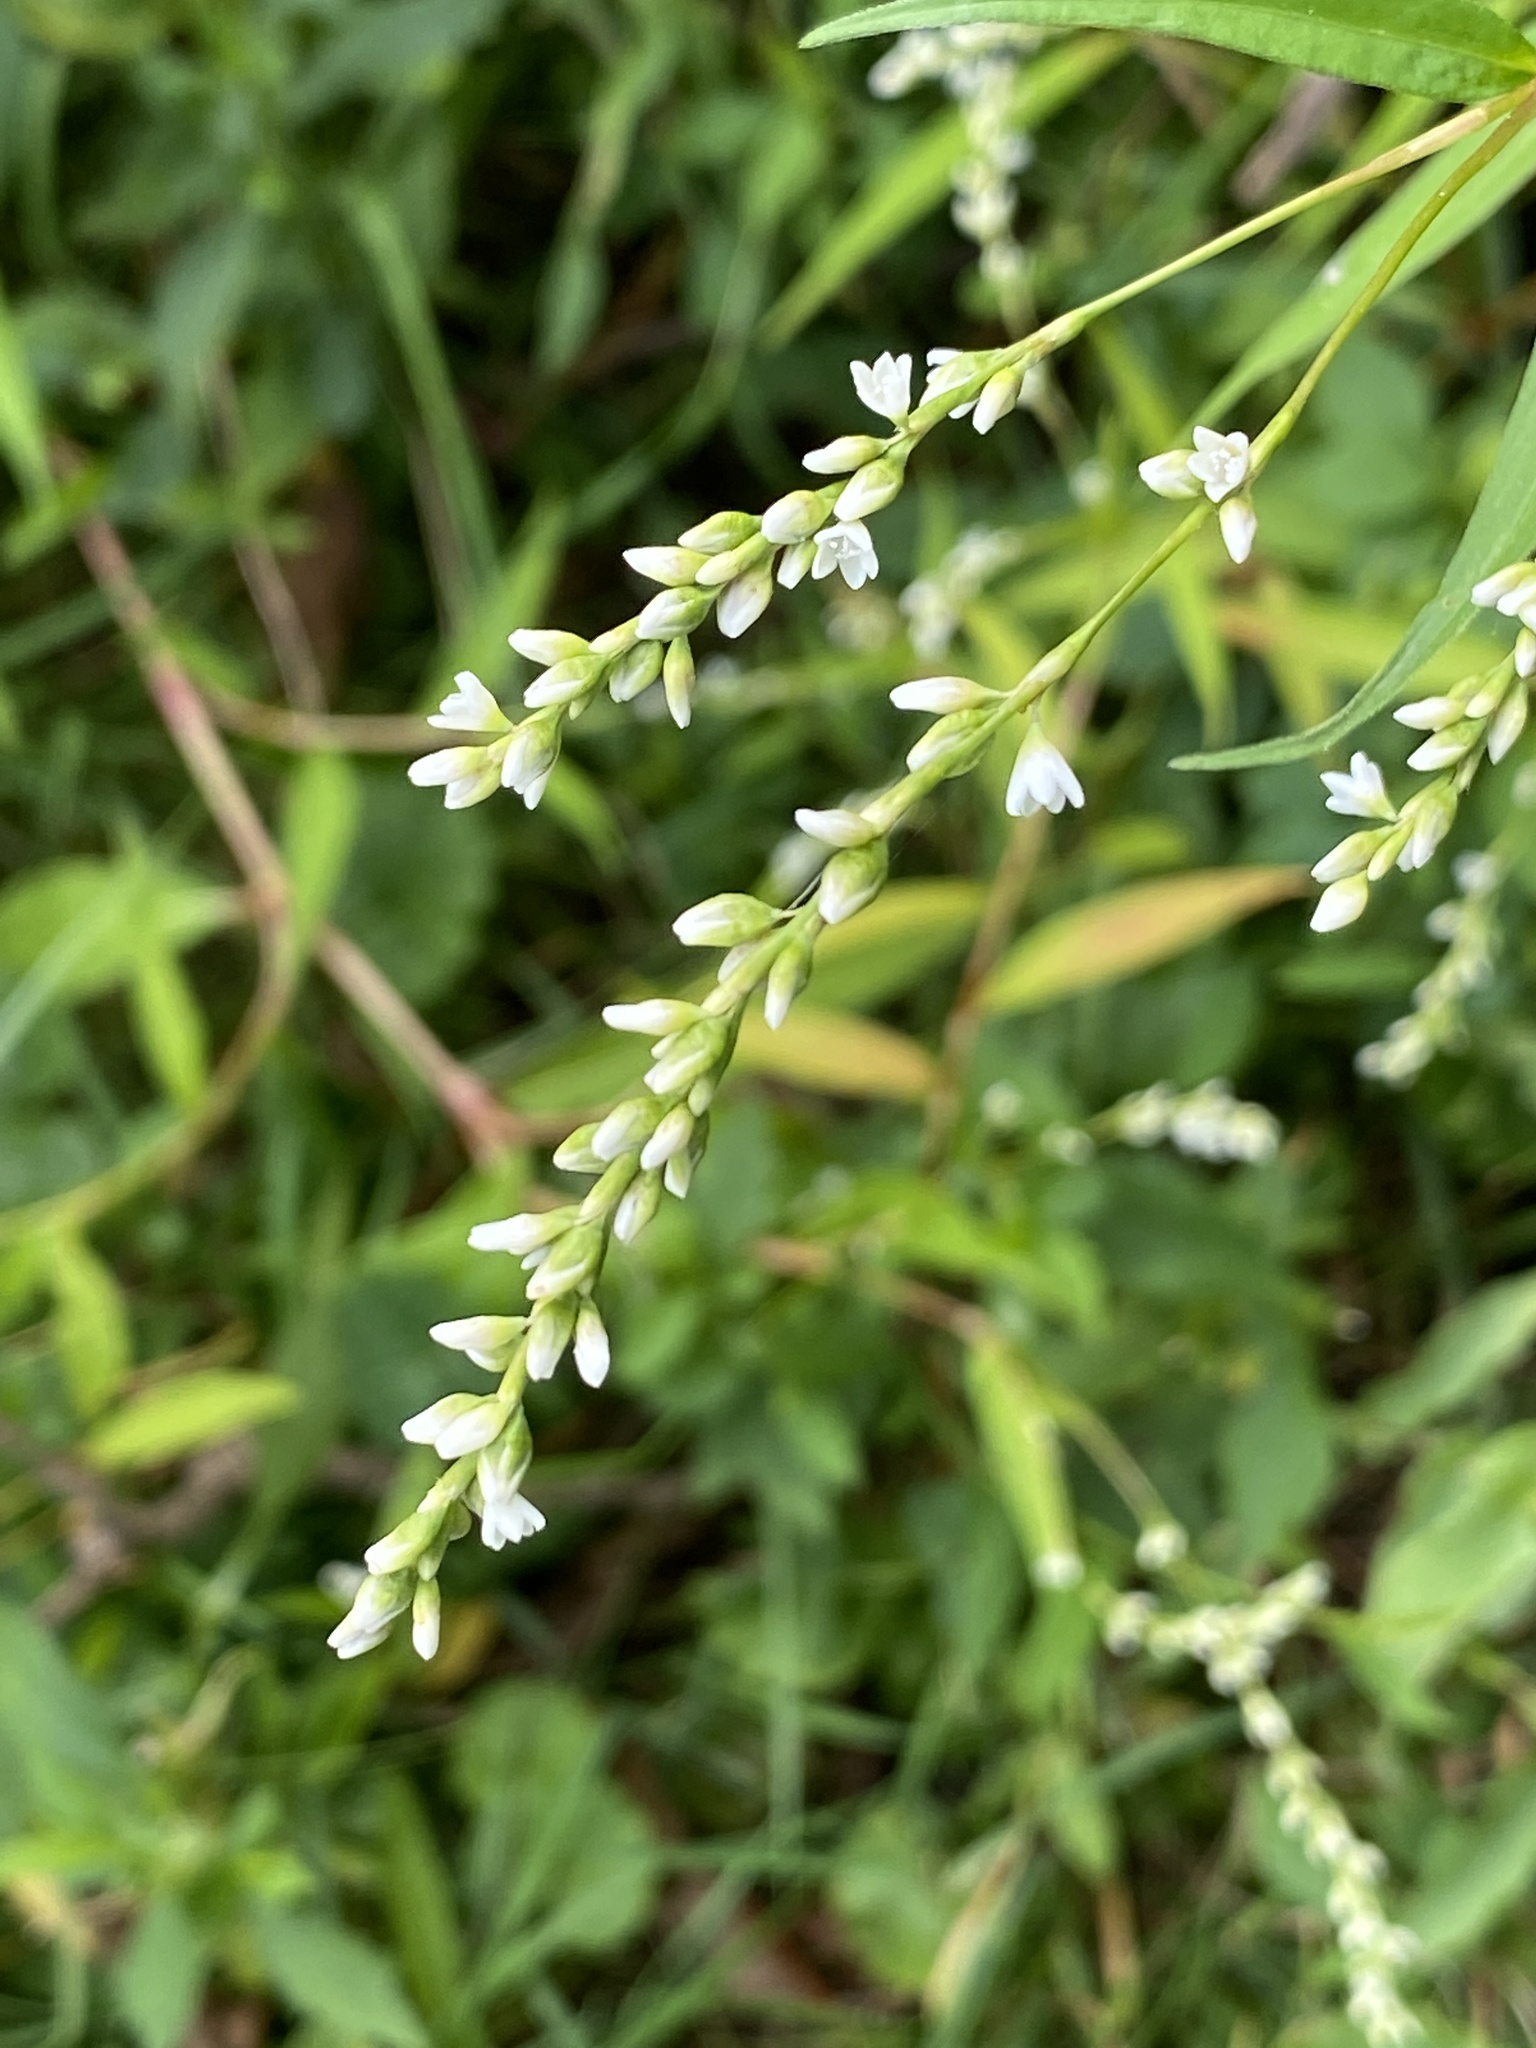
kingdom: Plantae
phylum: Tracheophyta
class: Magnoliopsida
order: Caryophyllales
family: Polygonaceae
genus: Persicaria
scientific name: Persicaria punctata
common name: Dotted smartweed
